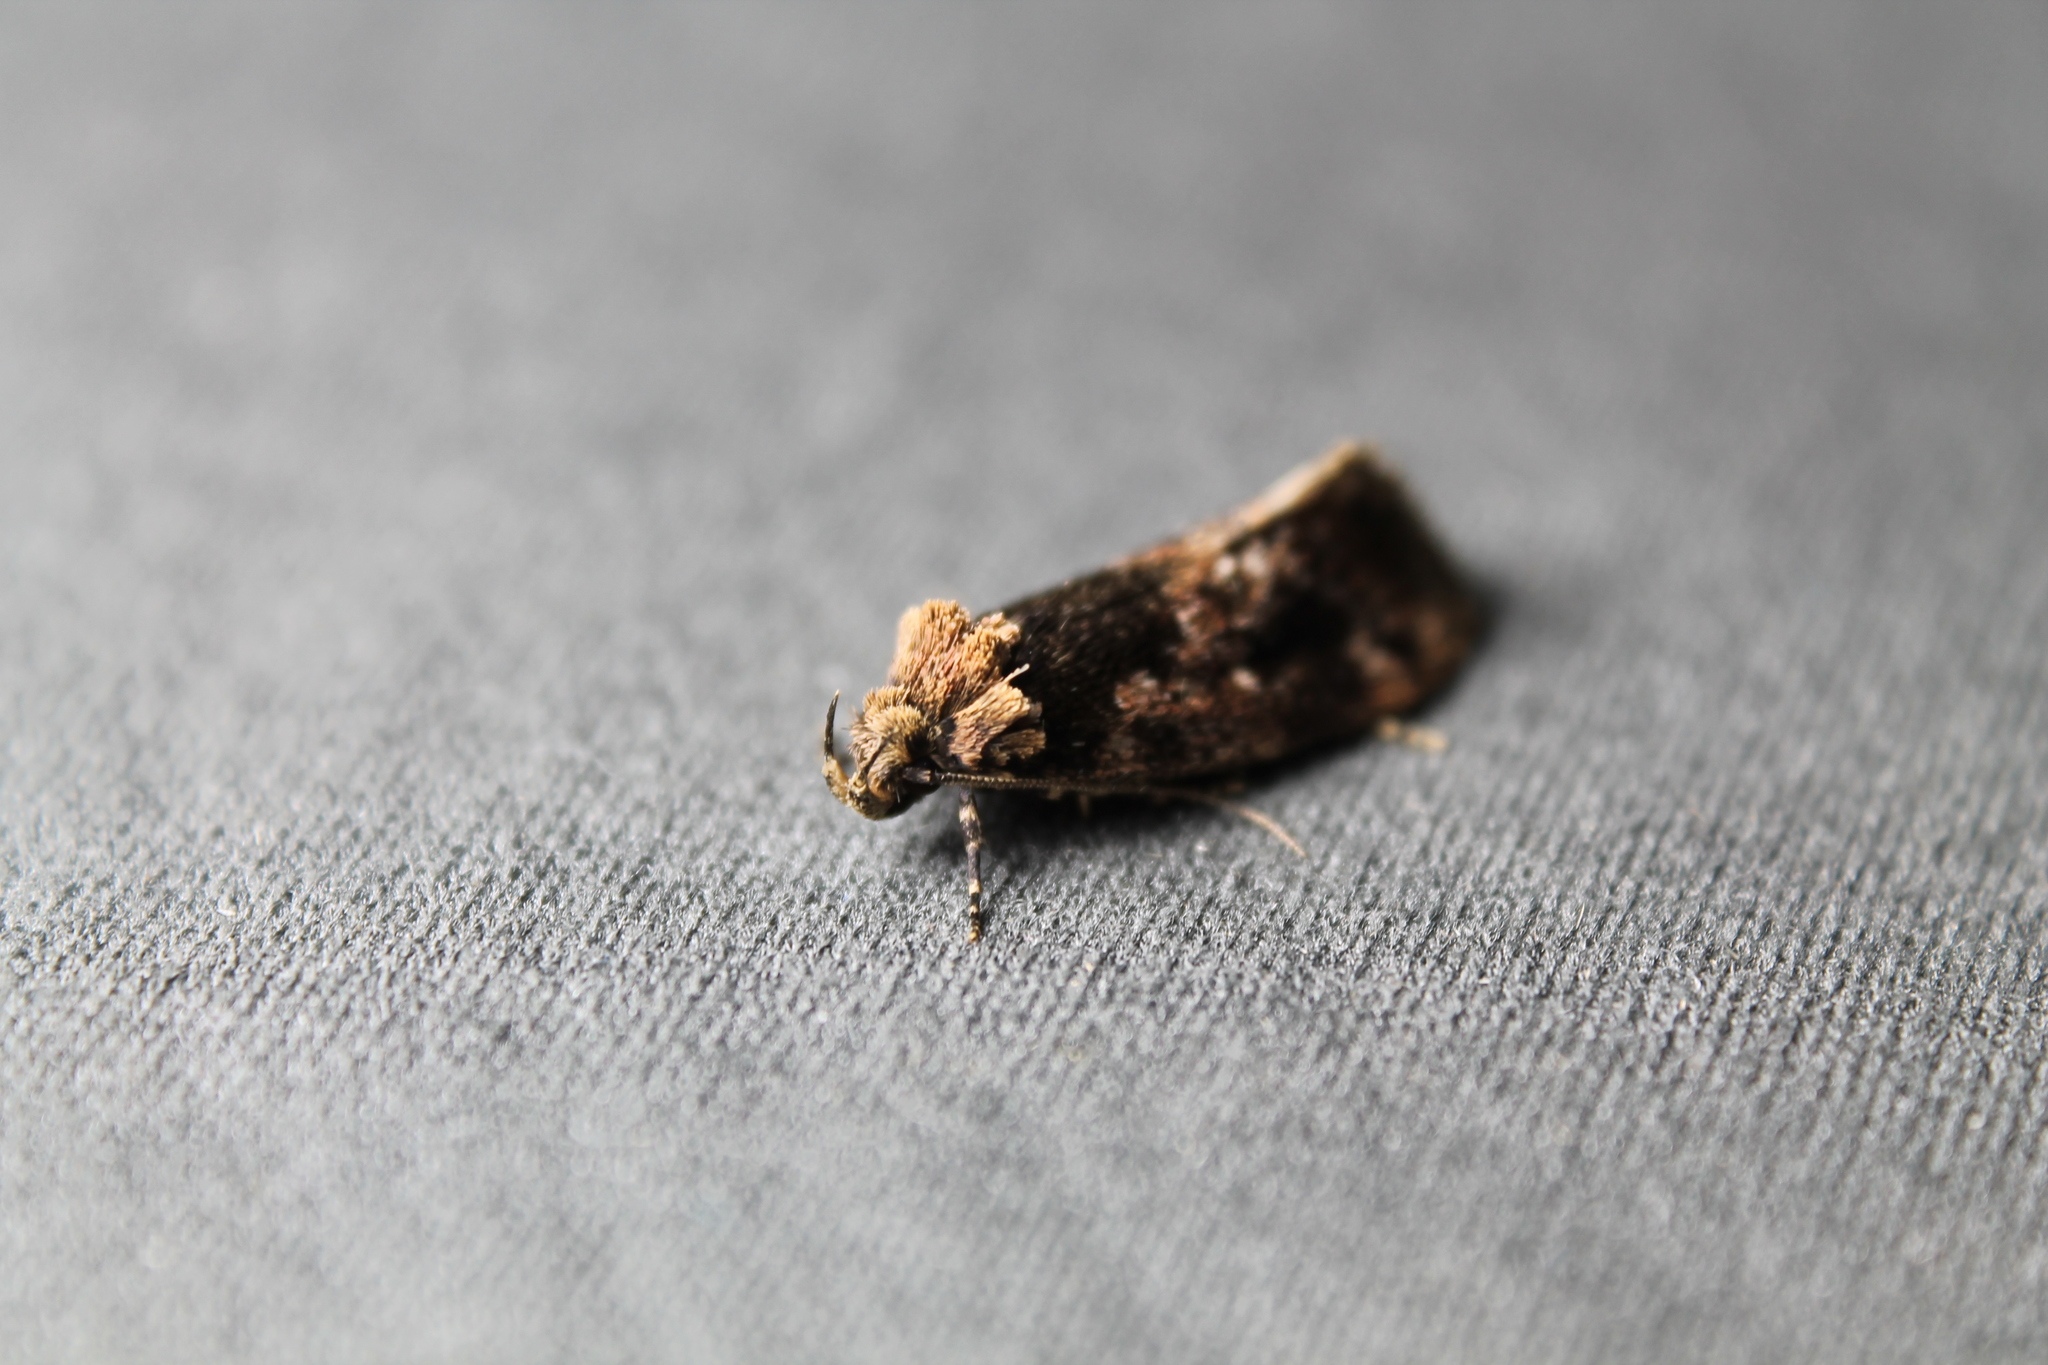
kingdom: Animalia
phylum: Arthropoda
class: Insecta
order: Lepidoptera
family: Oecophoridae
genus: Barea
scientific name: Barea consignatella
